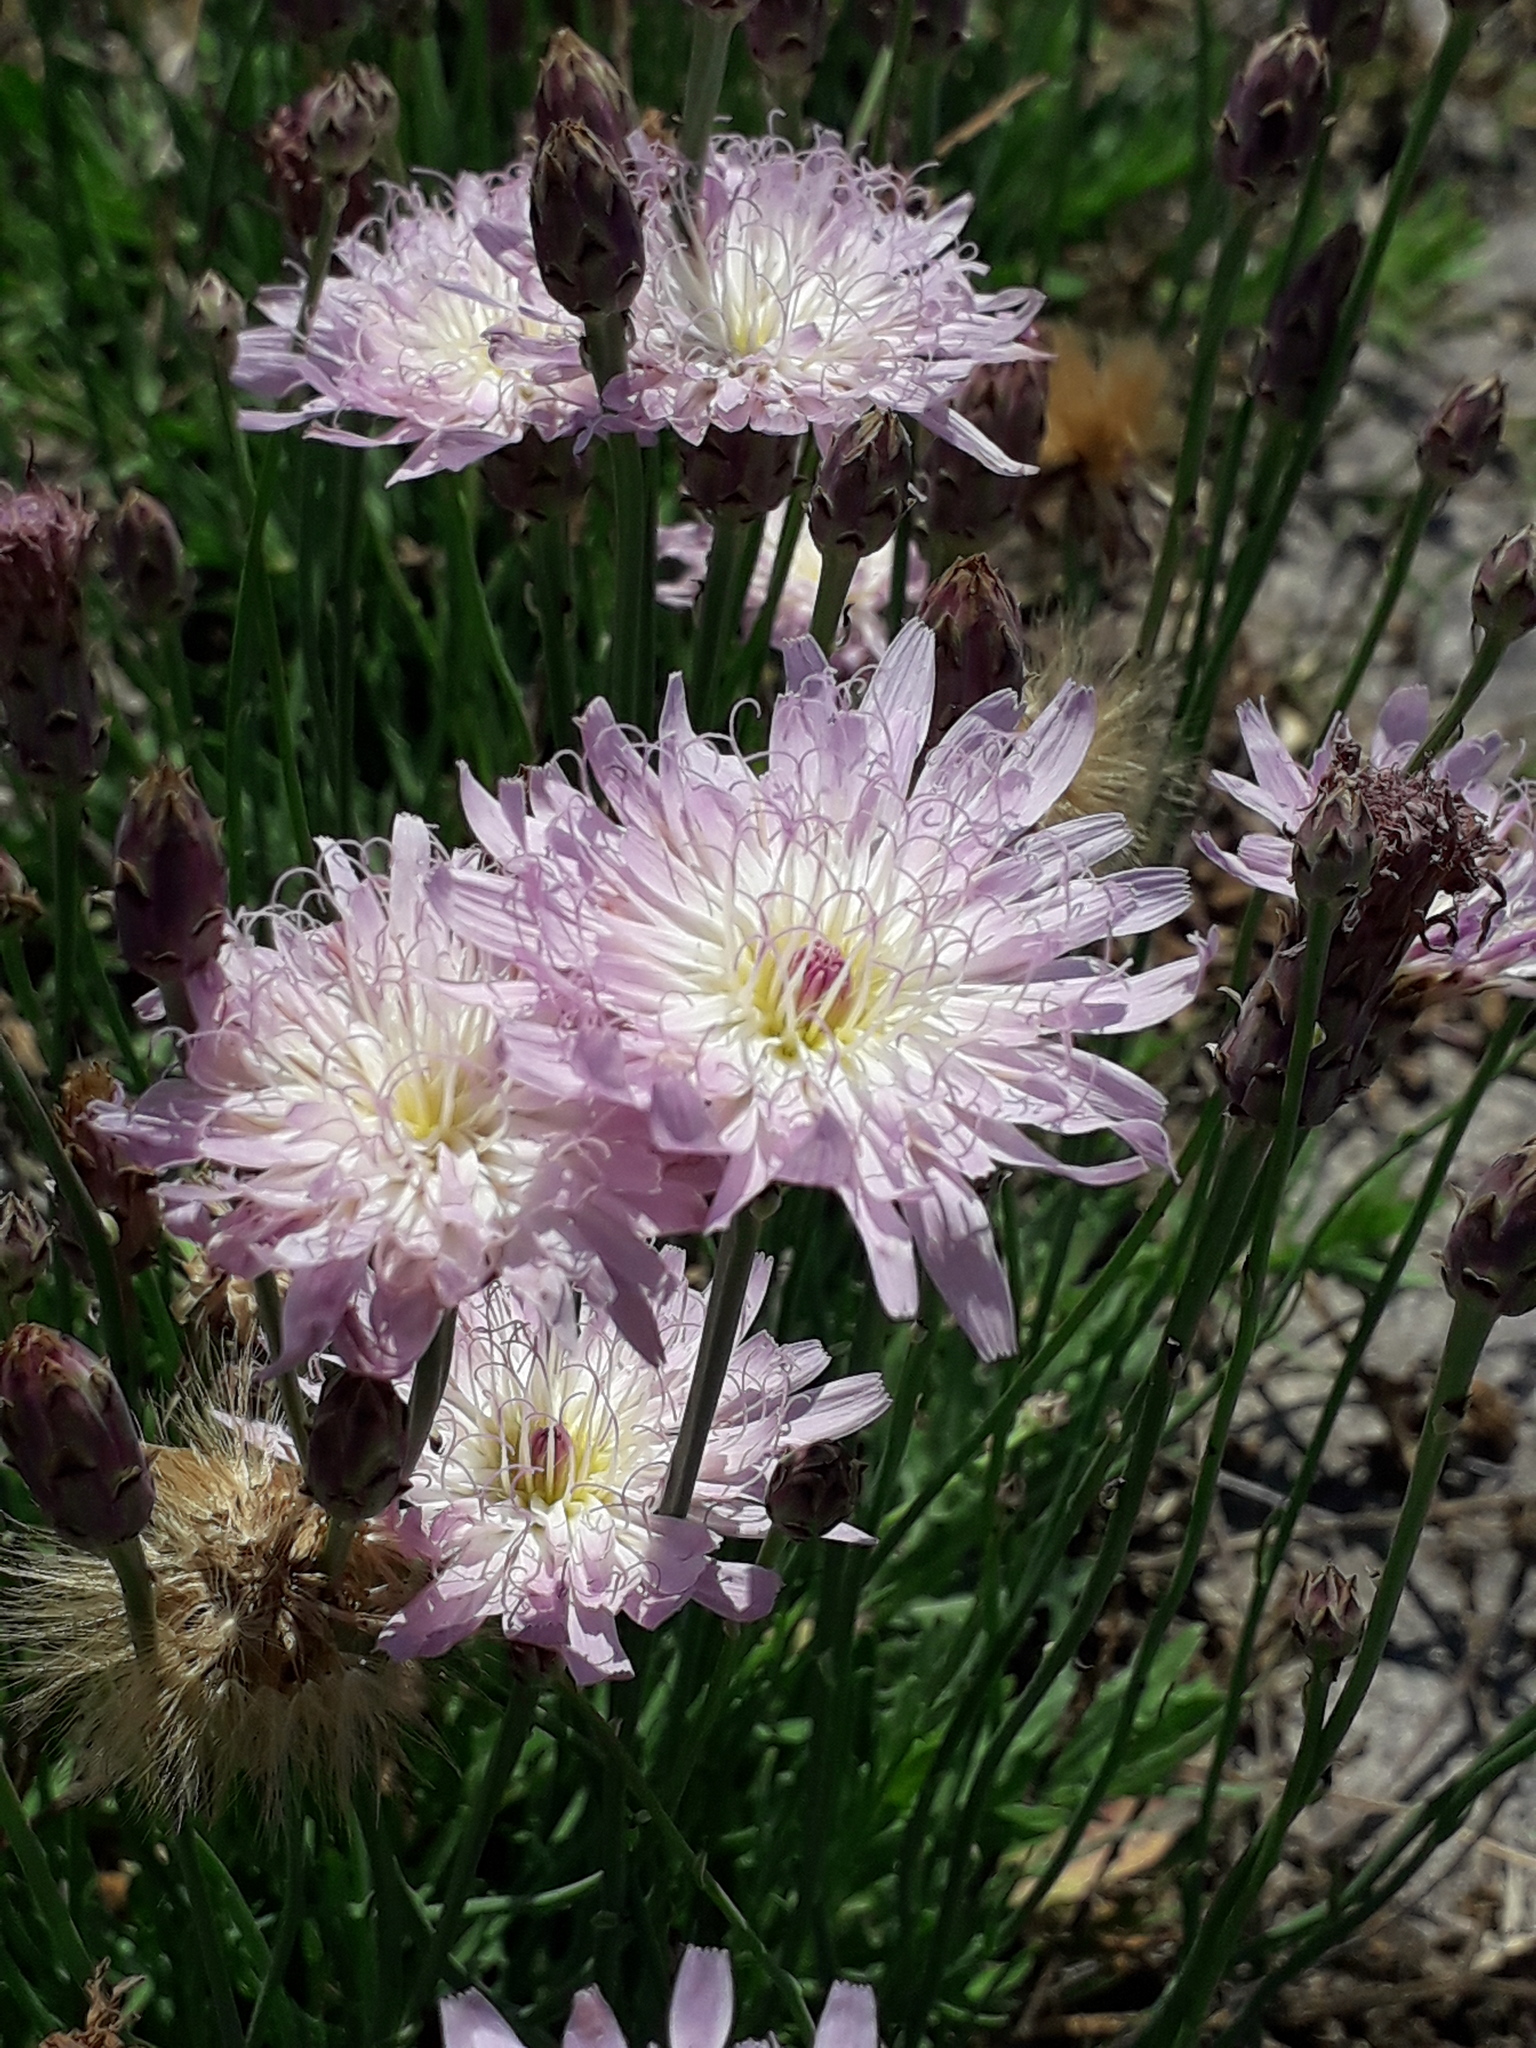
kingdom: Plantae
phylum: Tracheophyta
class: Magnoliopsida
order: Asterales
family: Asteraceae
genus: Pinaropappus
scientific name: Pinaropappus roseus
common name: Rock-lettuce
